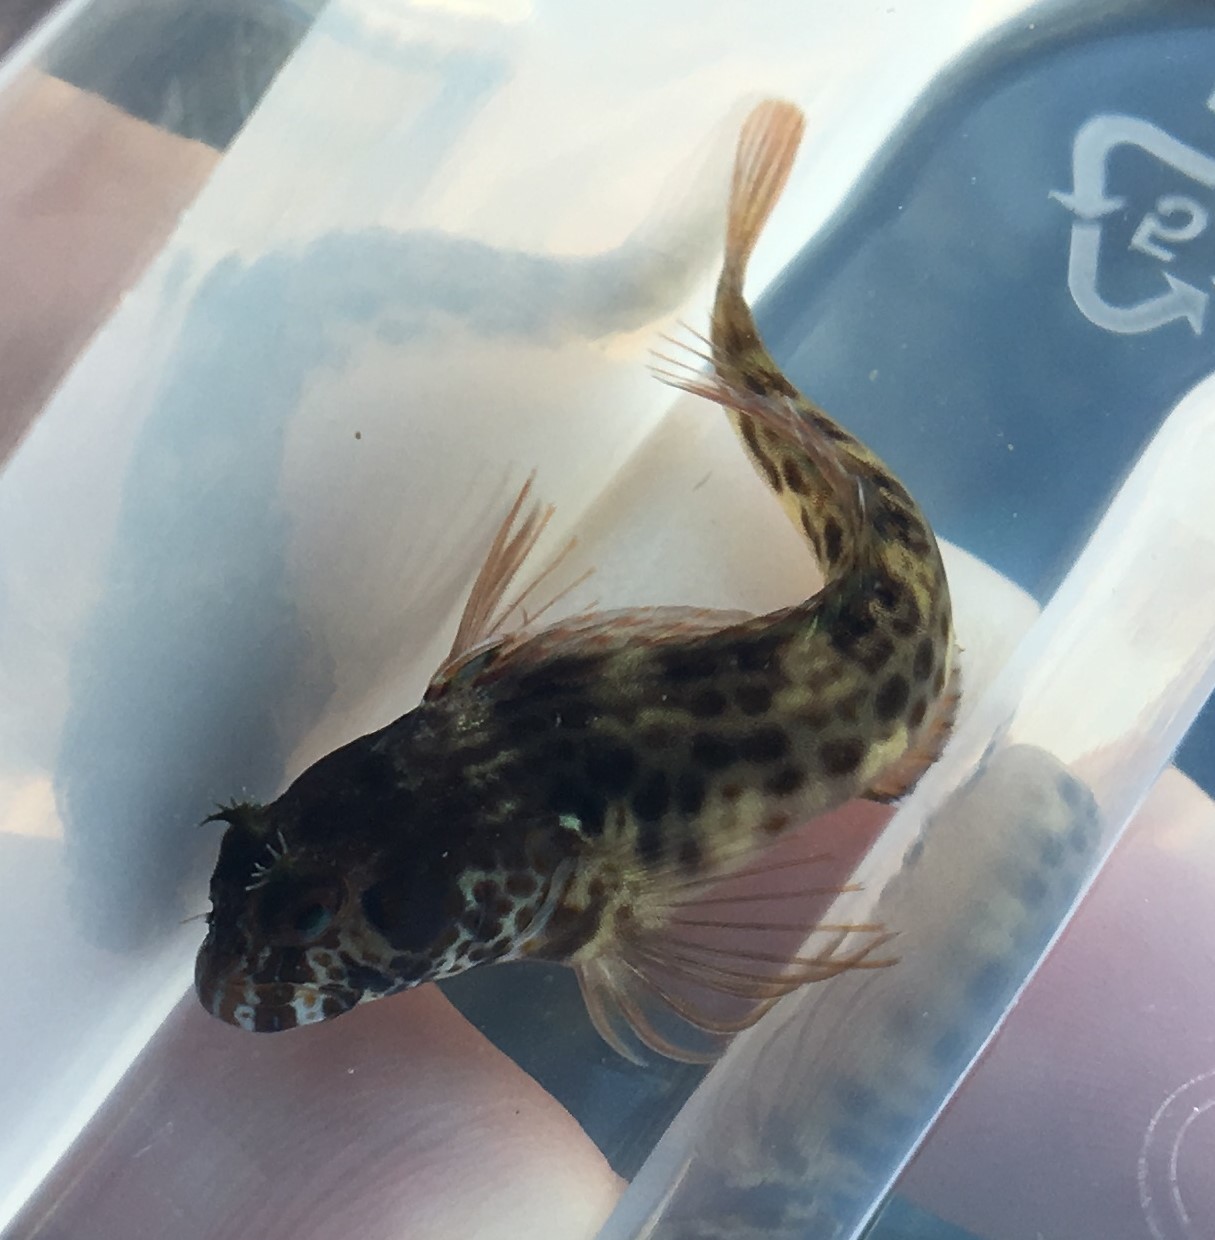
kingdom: Animalia
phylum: Chordata
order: Perciformes
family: Blenniidae
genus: Parablennius
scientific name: Parablennius intermedius
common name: Horned blenny
